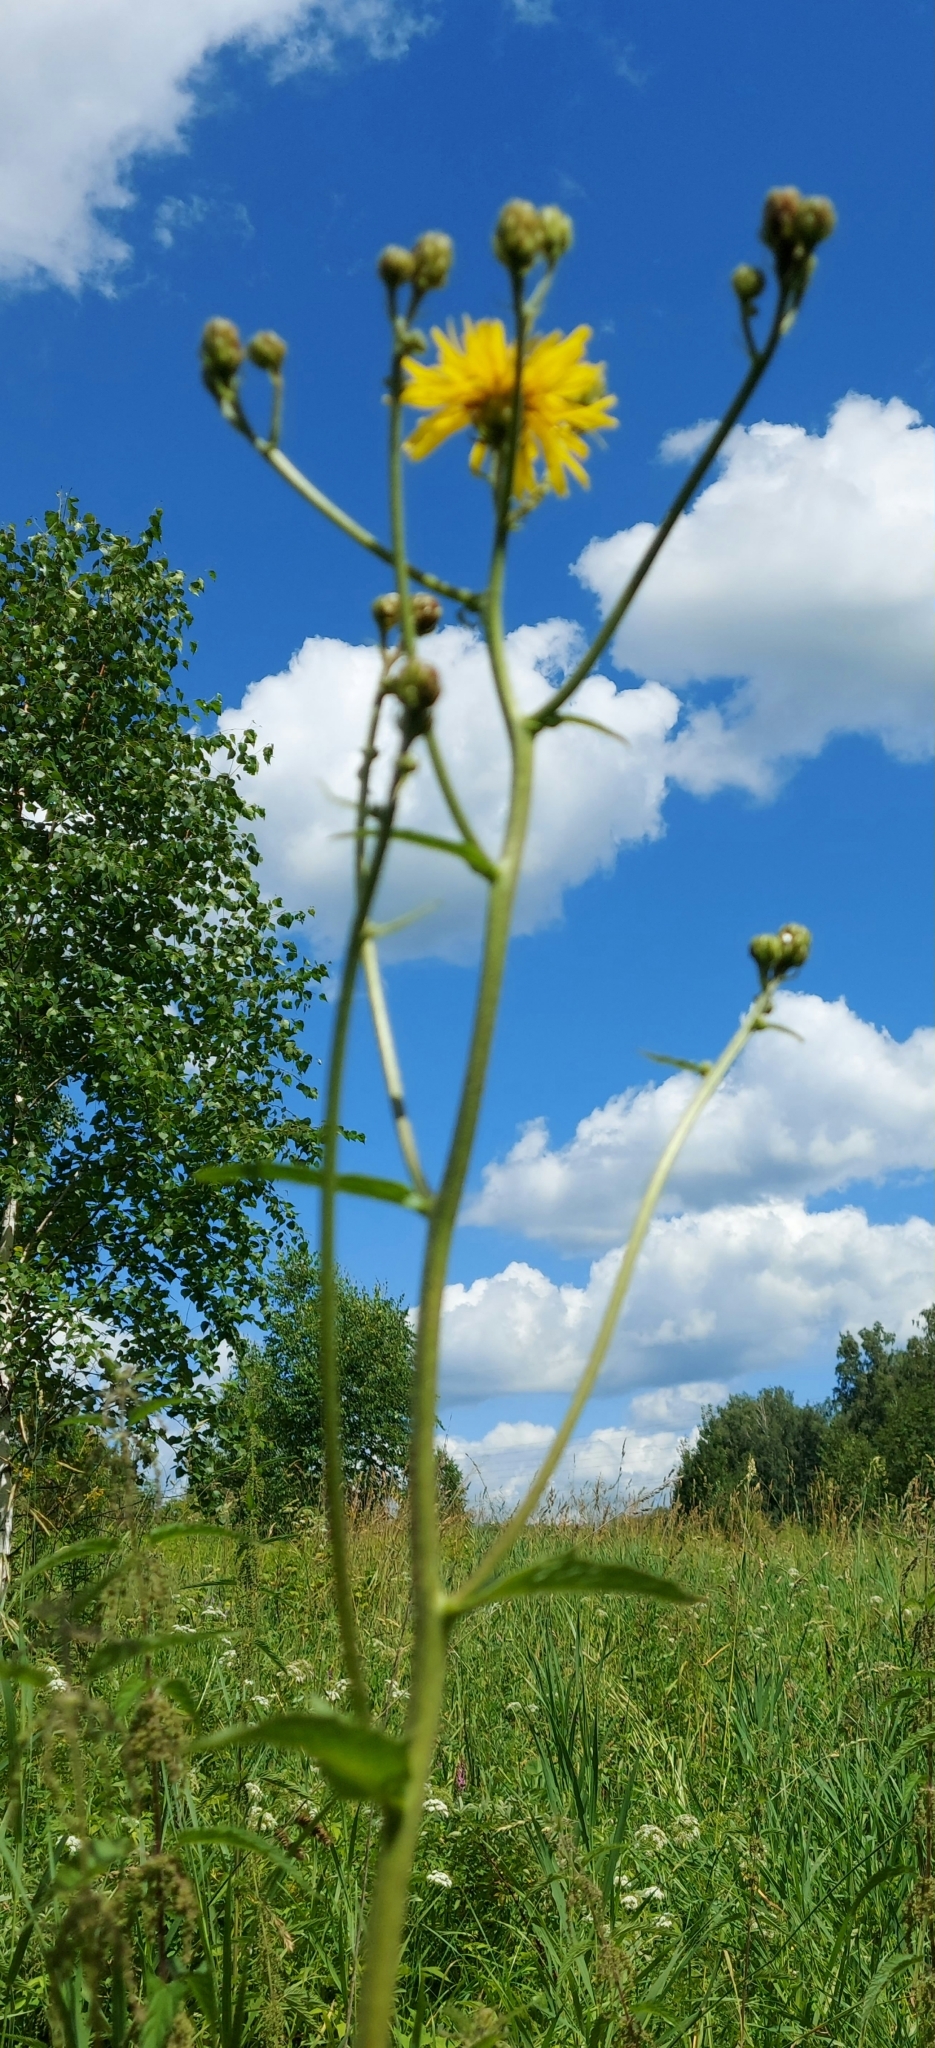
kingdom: Plantae
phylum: Tracheophyta
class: Magnoliopsida
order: Asterales
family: Asteraceae
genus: Crepis
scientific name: Crepis sibirica
